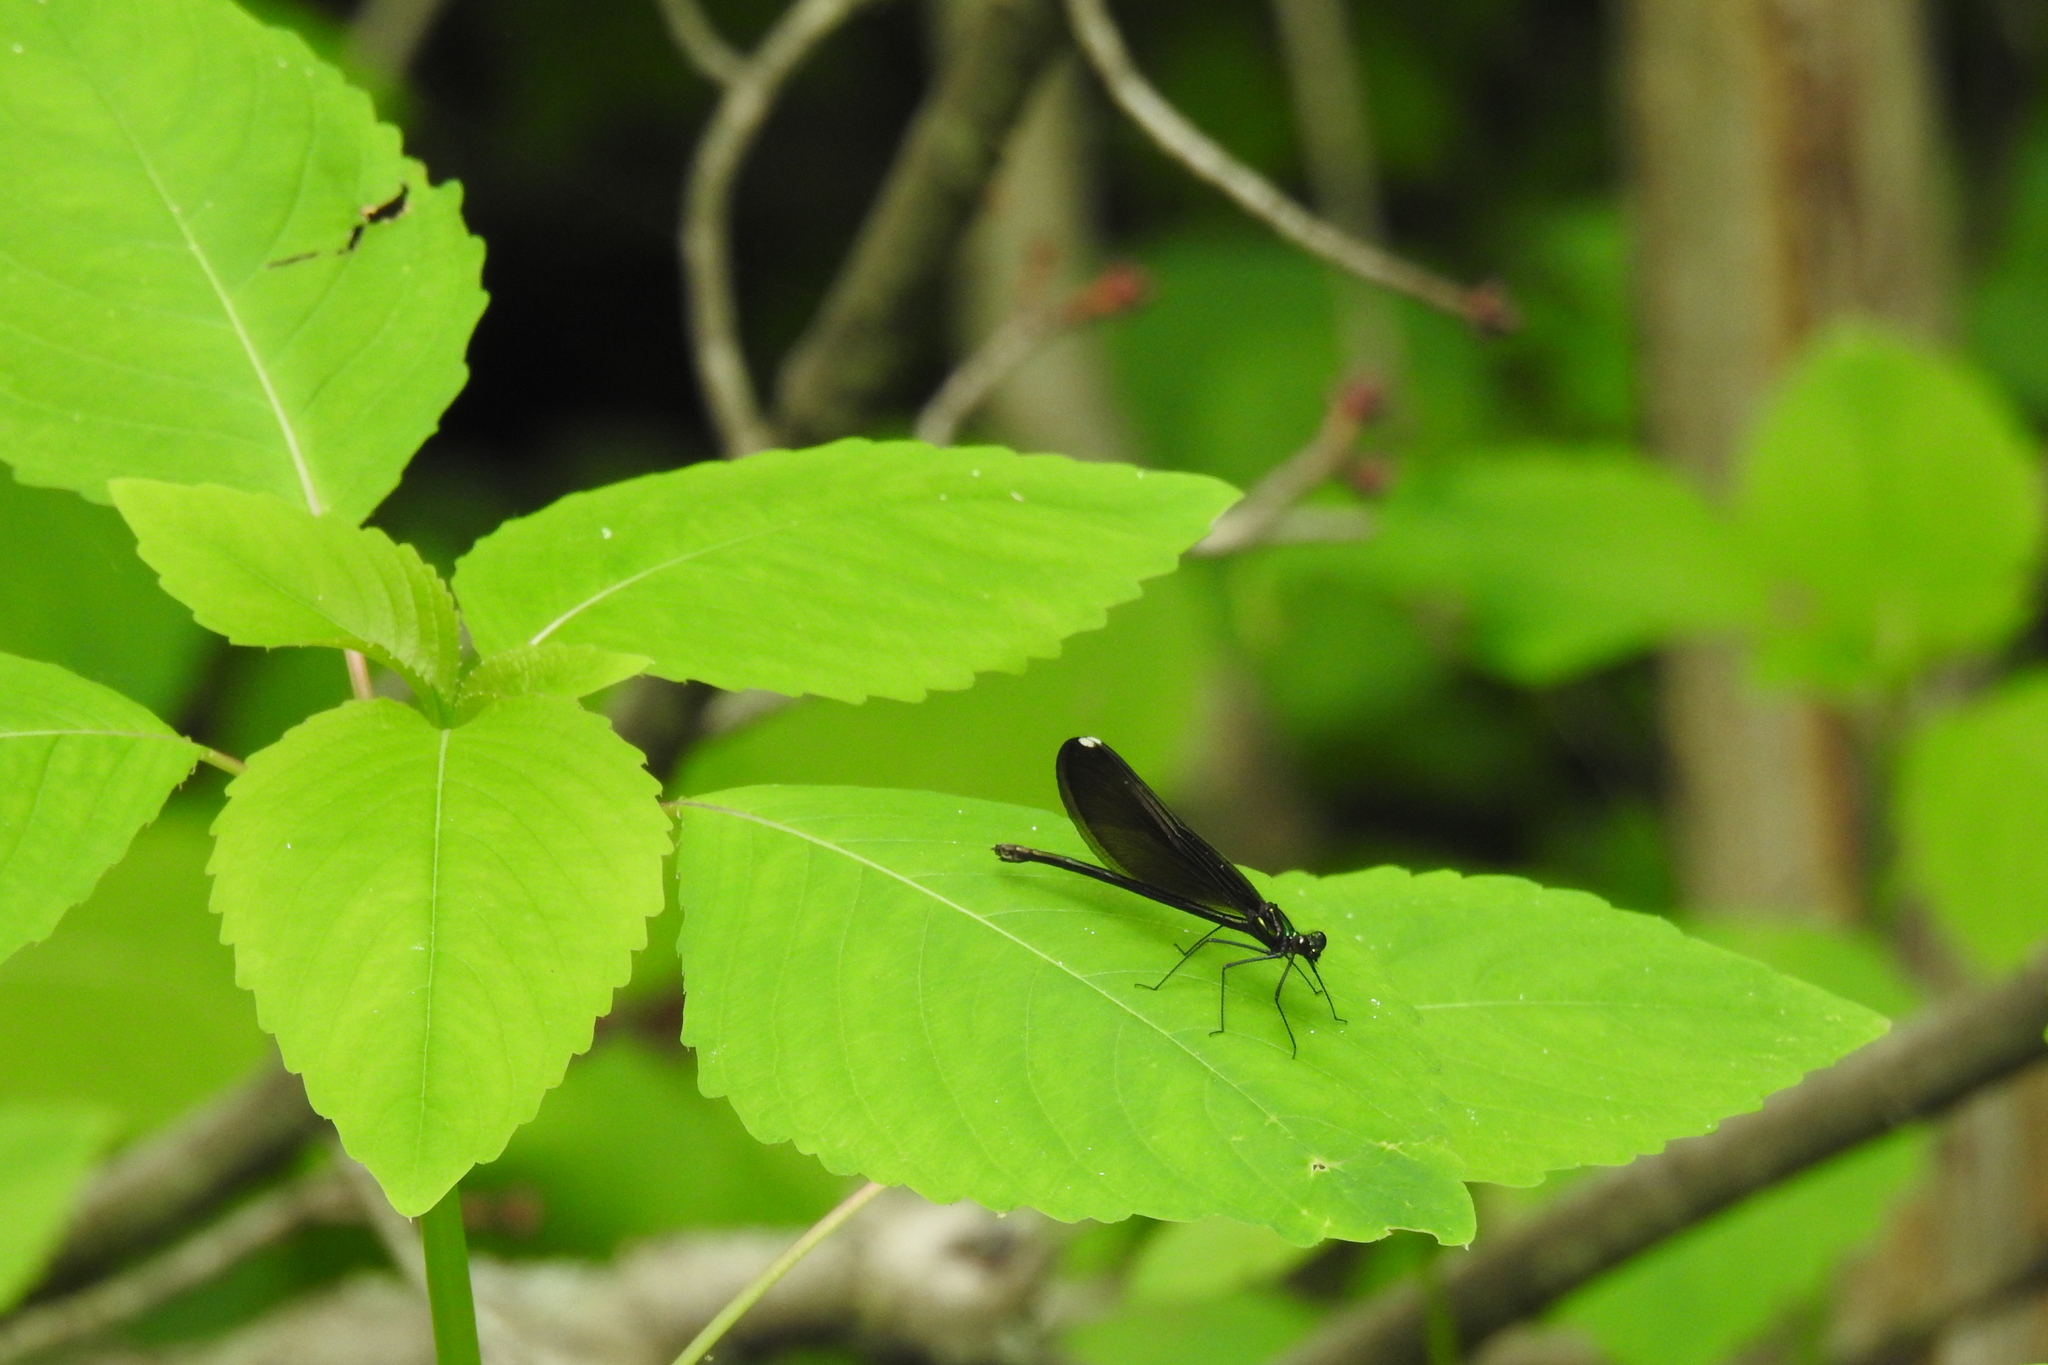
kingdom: Animalia
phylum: Arthropoda
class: Insecta
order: Odonata
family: Calopterygidae
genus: Calopteryx
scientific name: Calopteryx maculata
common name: Ebony jewelwing
